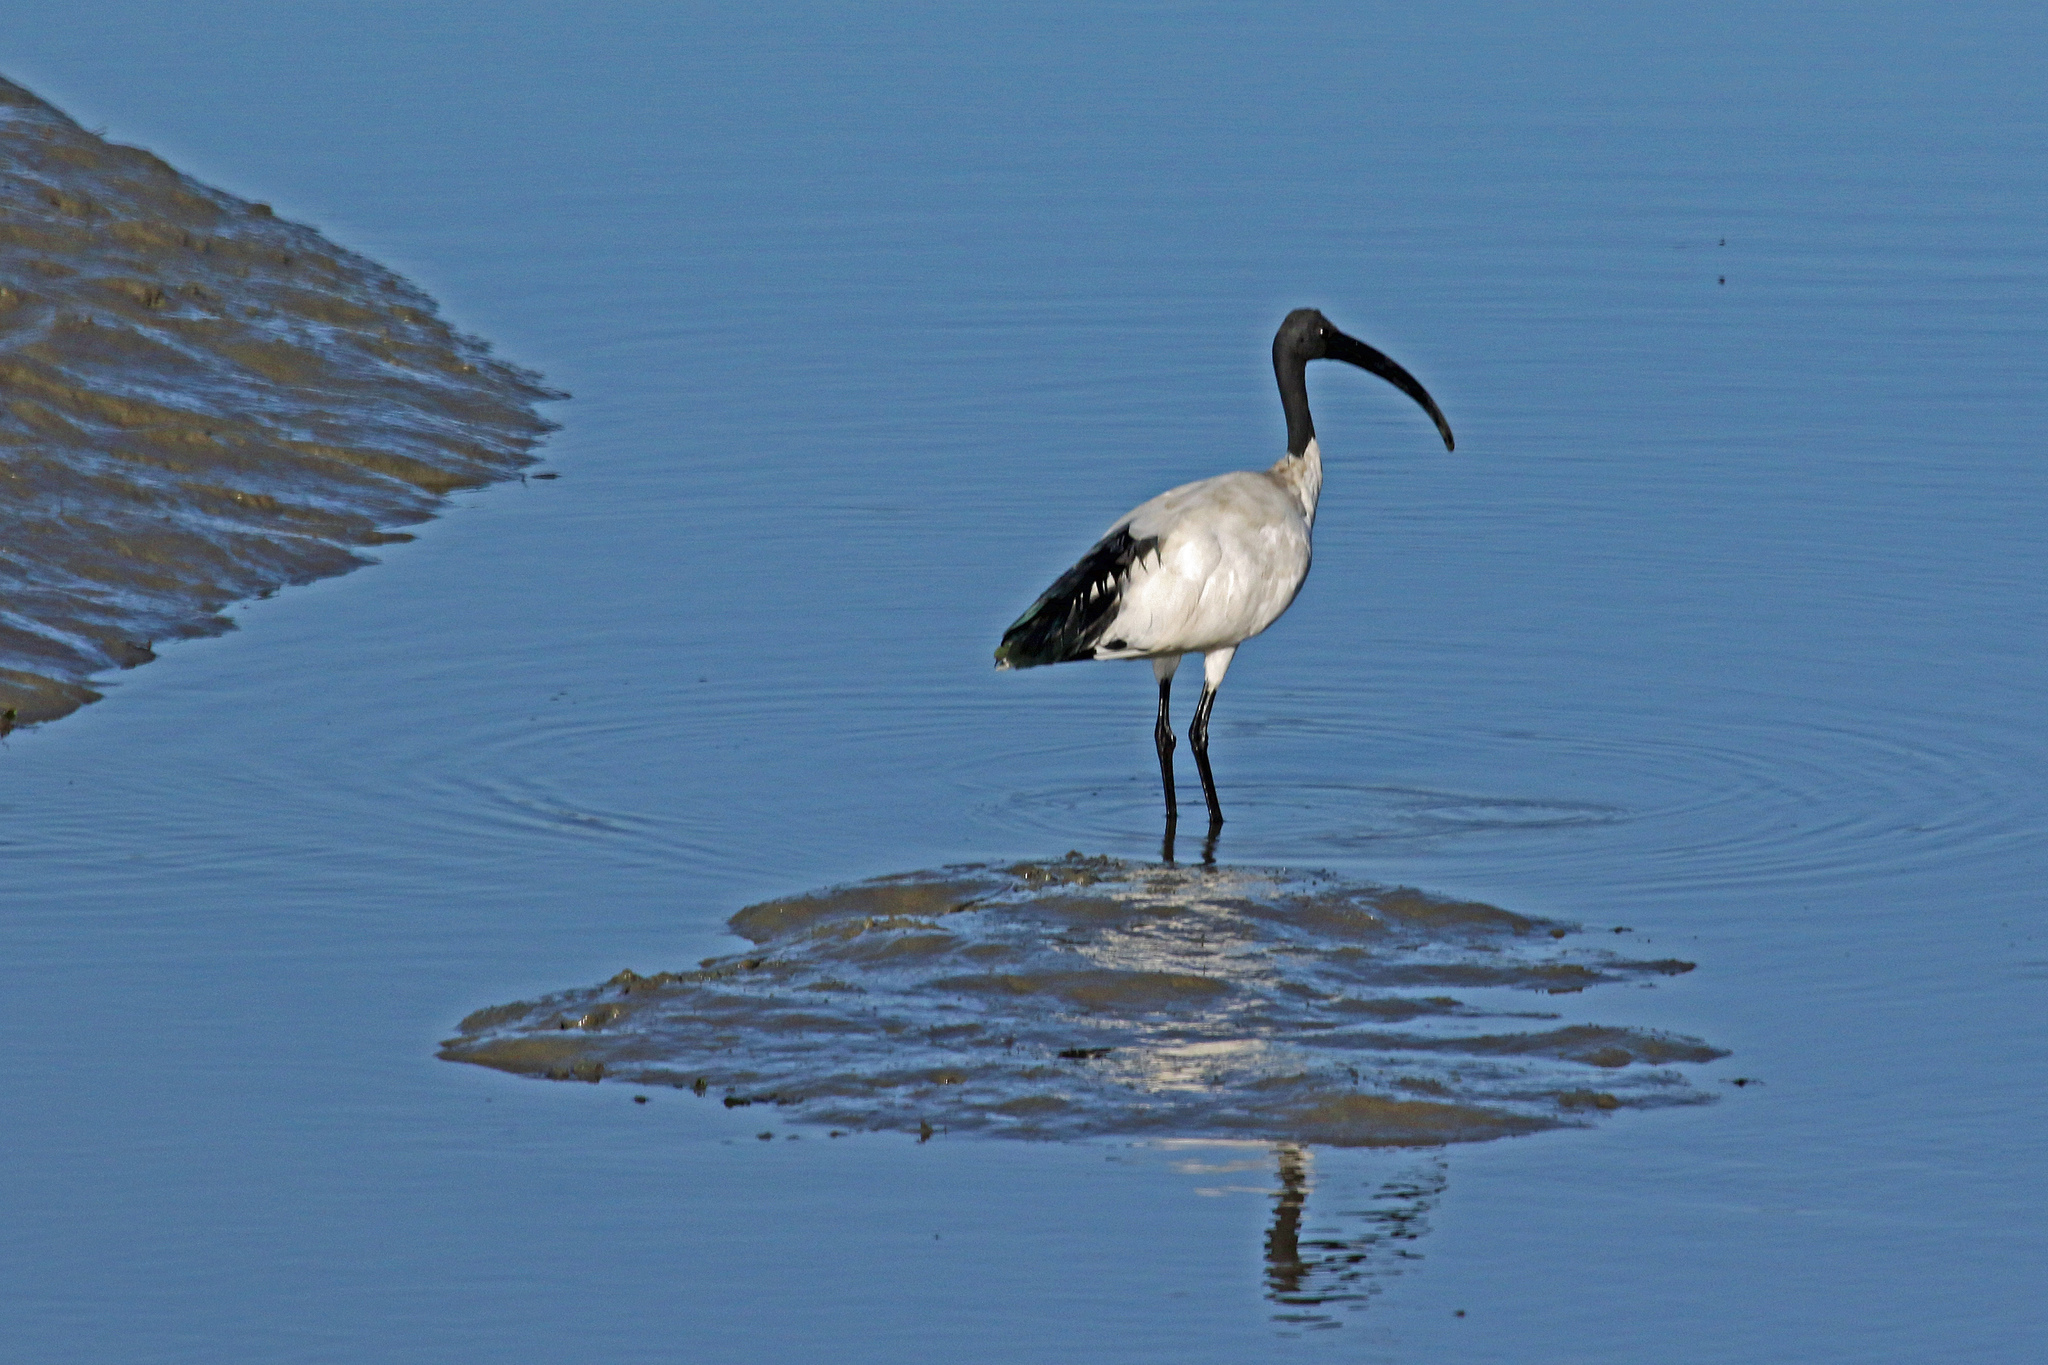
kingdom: Animalia
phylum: Chordata
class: Aves
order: Pelecaniformes
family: Threskiornithidae
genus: Threskiornis
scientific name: Threskiornis aethiopicus
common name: Sacred ibis
